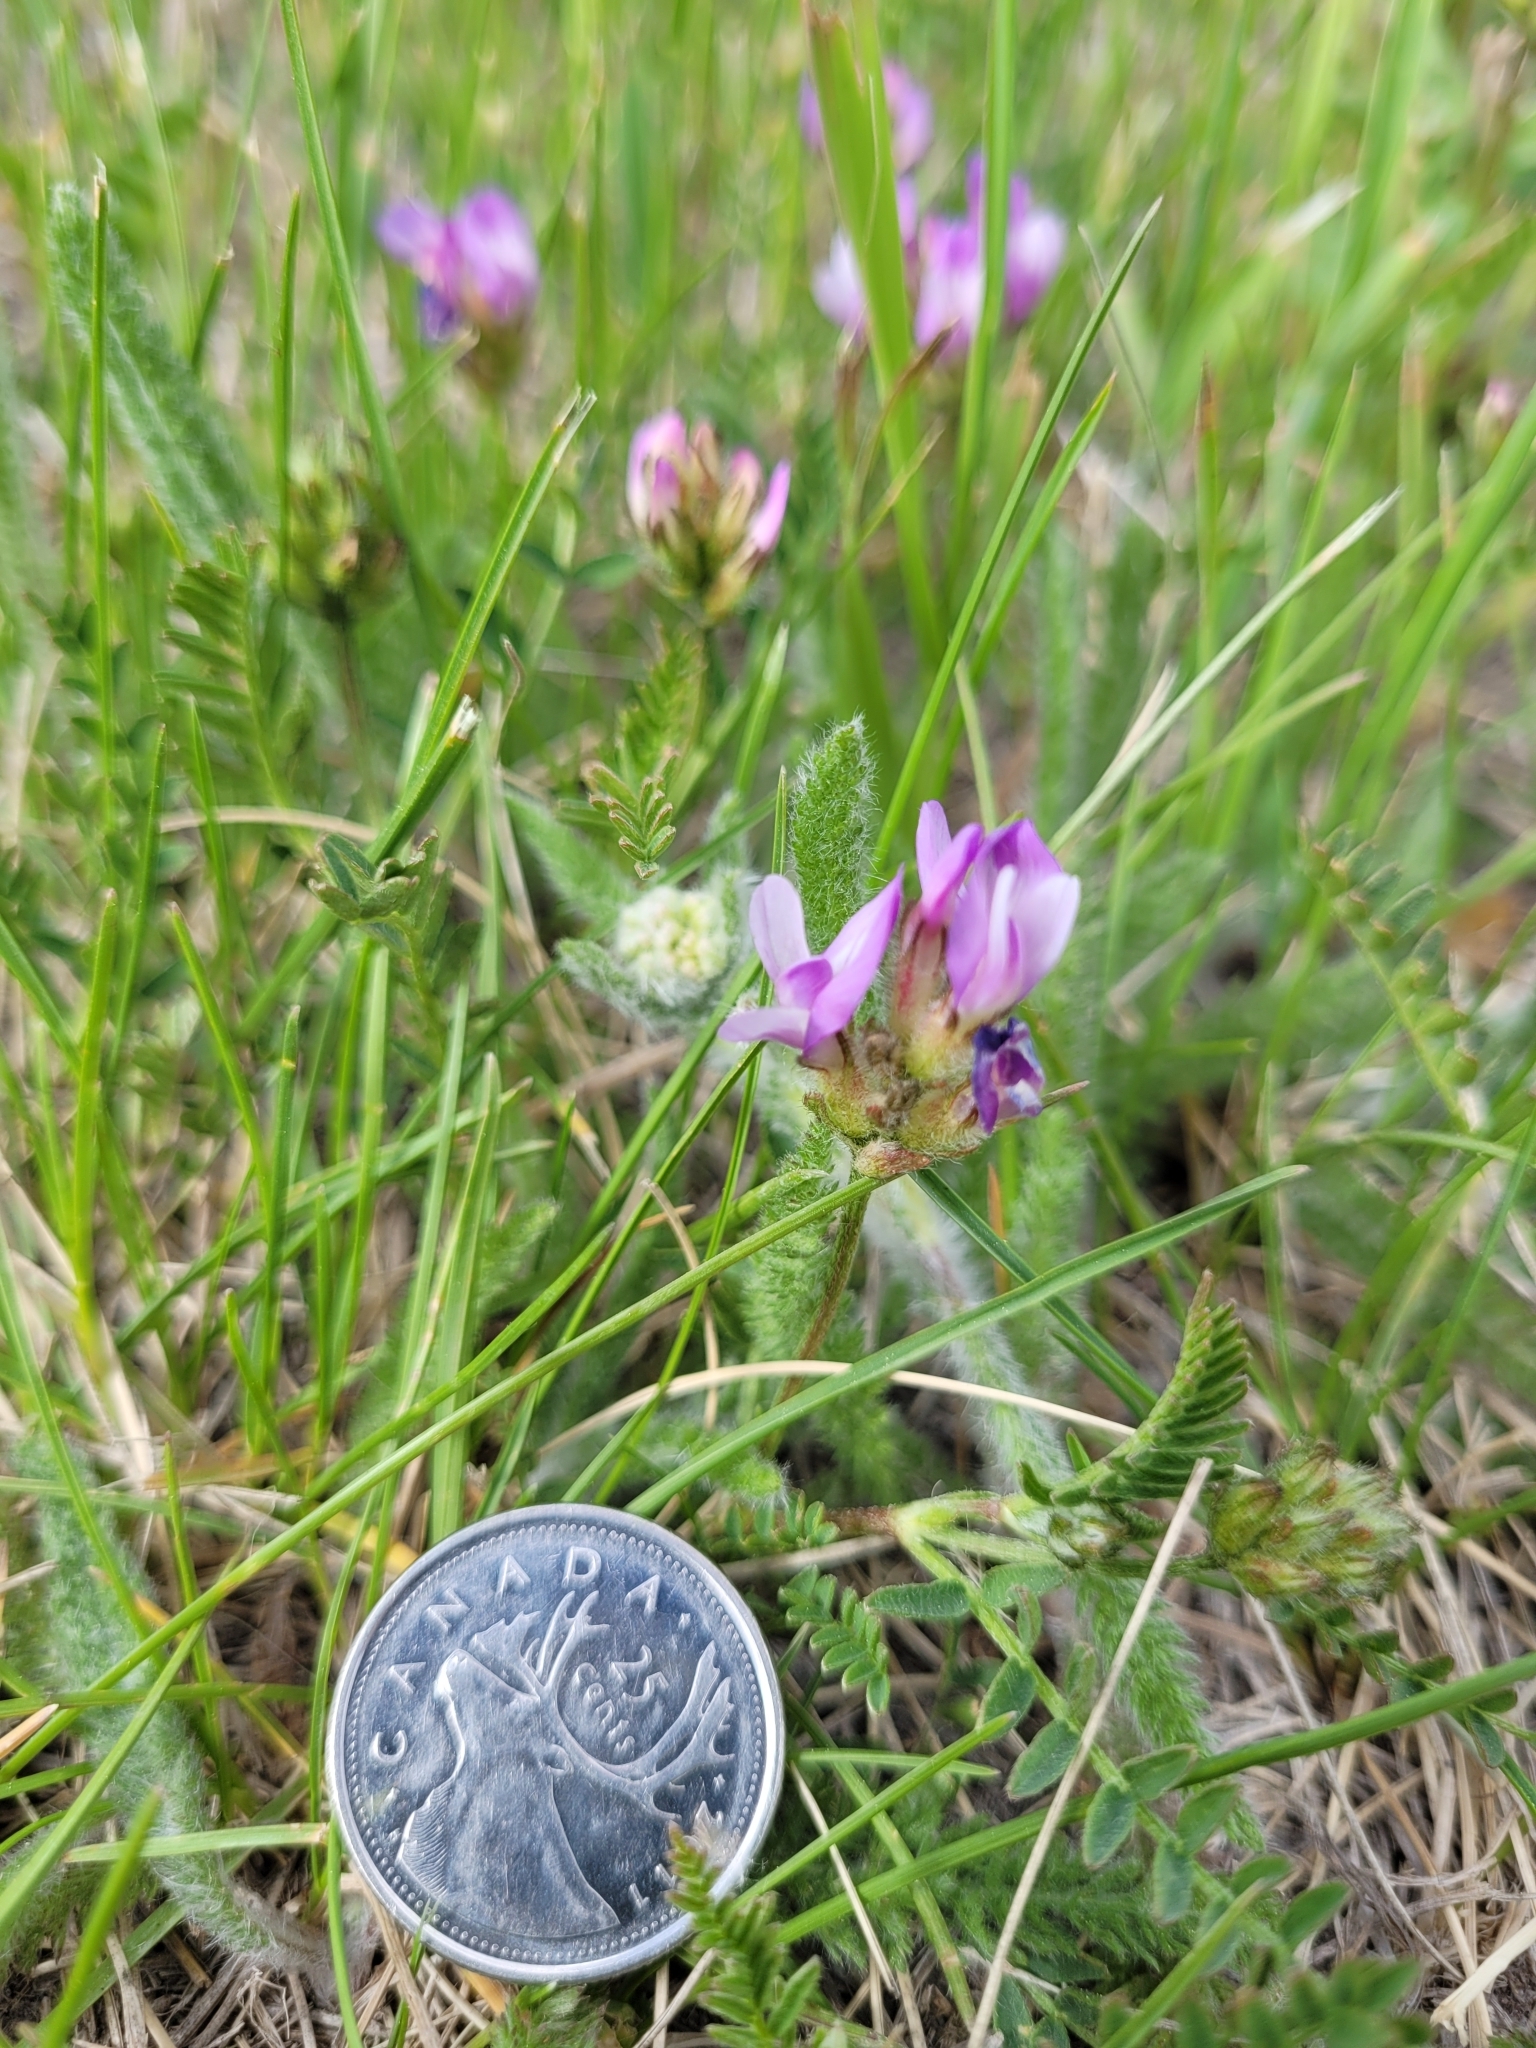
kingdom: Plantae
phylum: Tracheophyta
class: Magnoliopsida
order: Fabales
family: Fabaceae
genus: Astragalus
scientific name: Astragalus agrestis
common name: Field milk-vetch
